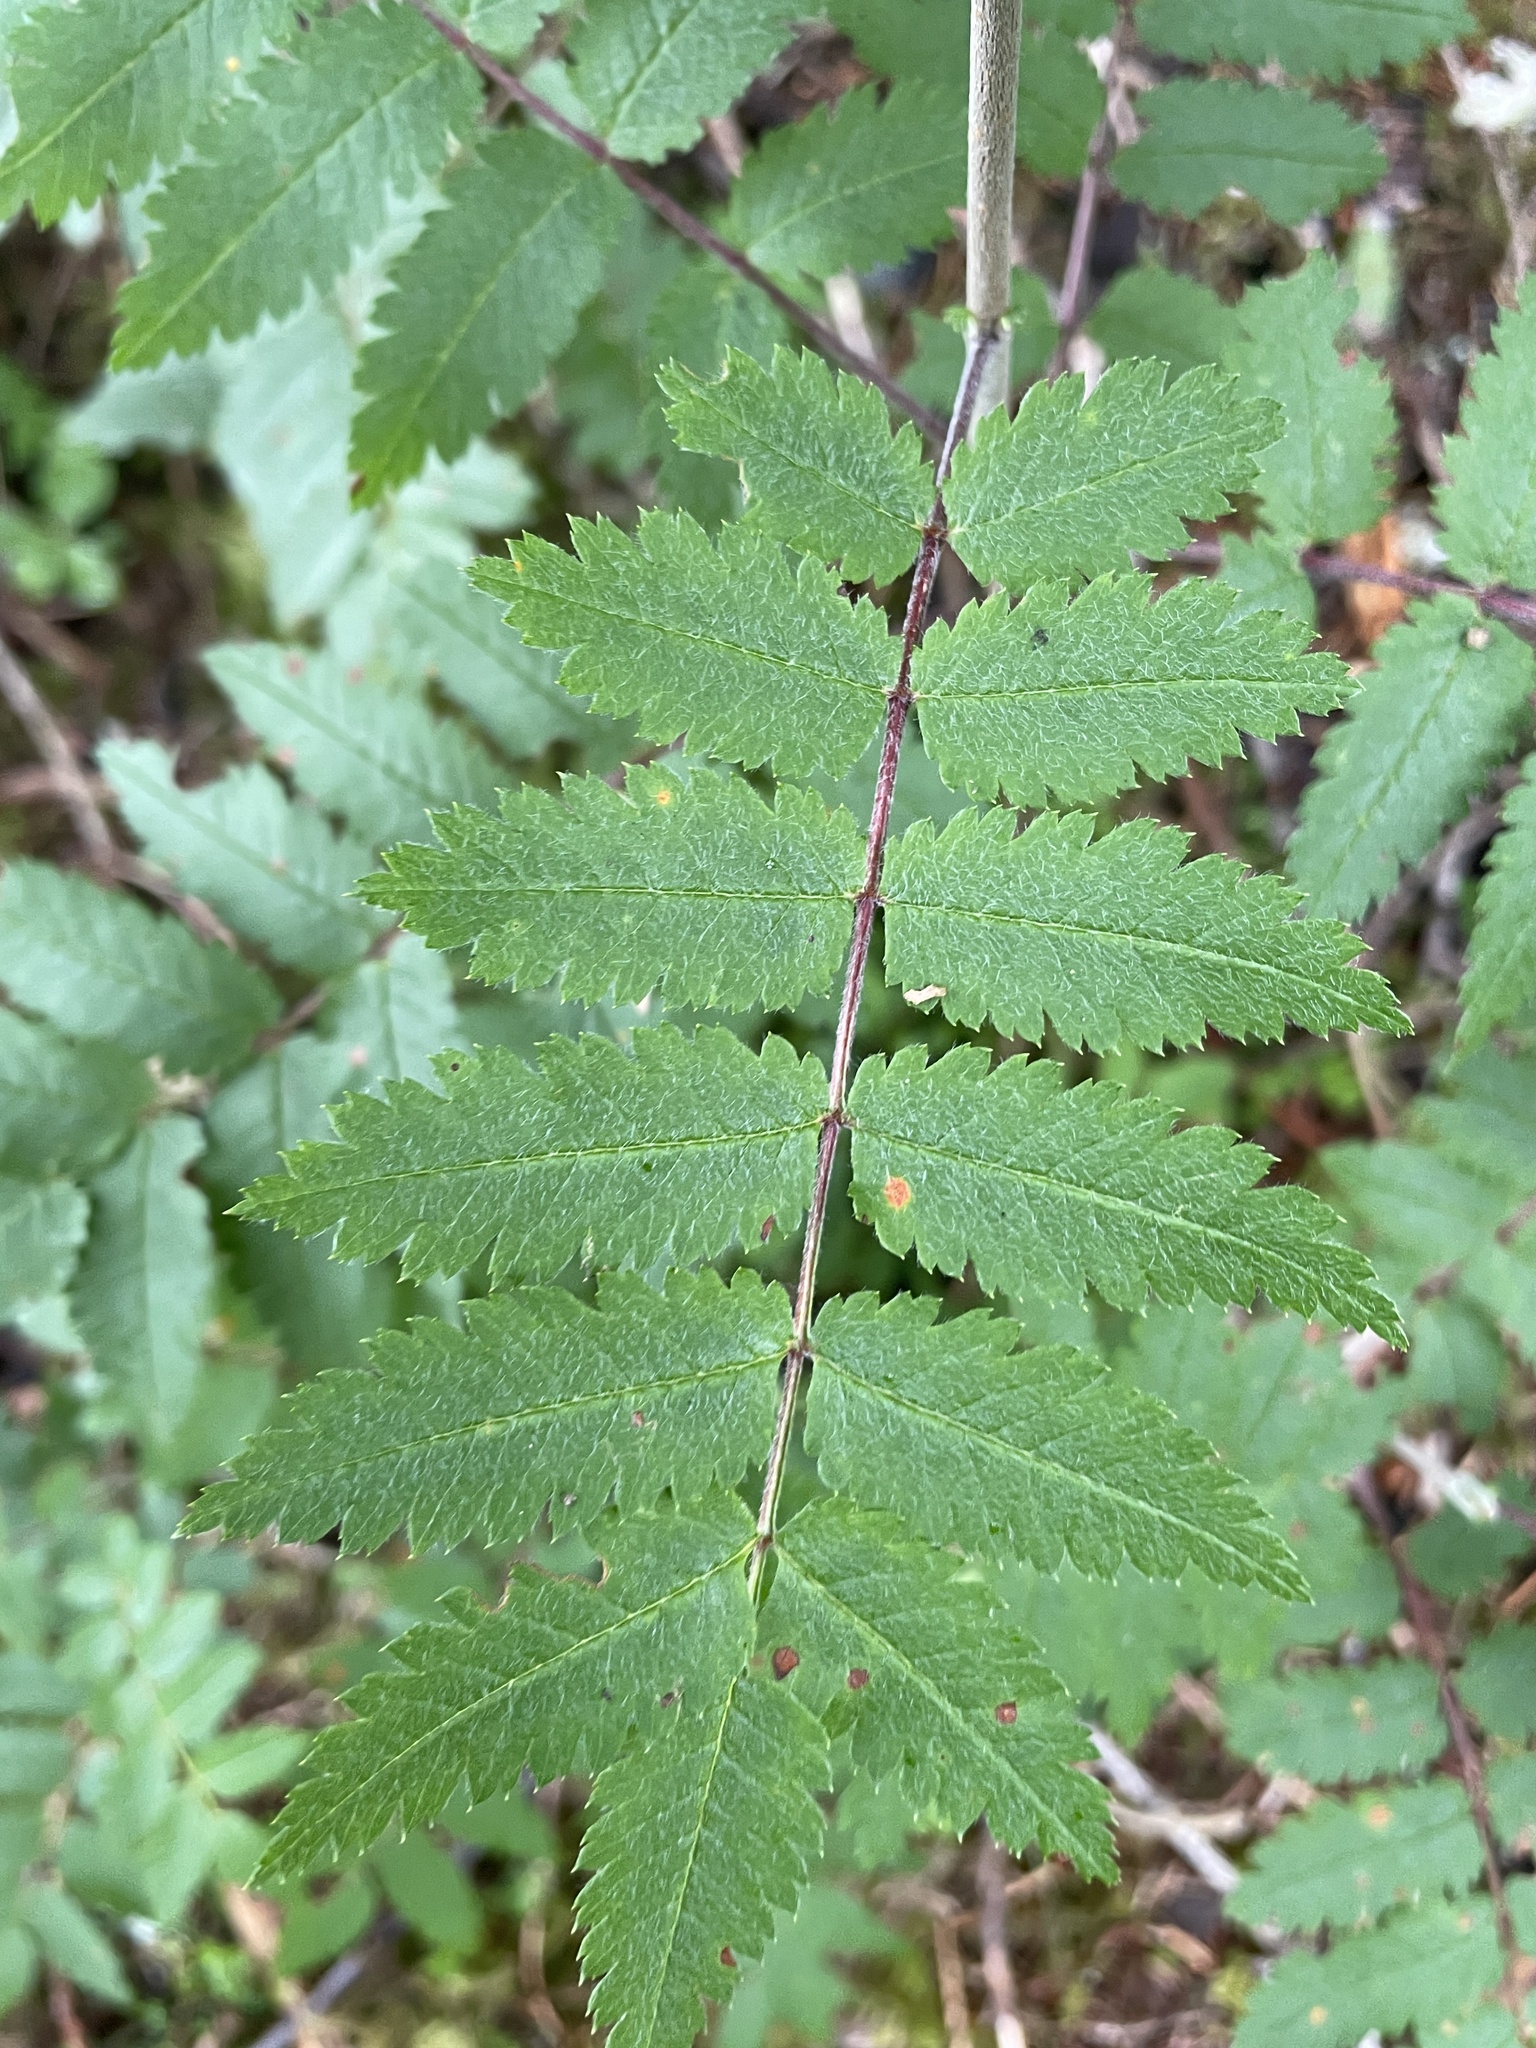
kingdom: Plantae
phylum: Tracheophyta
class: Magnoliopsida
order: Rosales
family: Rosaceae
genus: Sorbus
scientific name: Sorbus aucuparia
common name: Rowan
